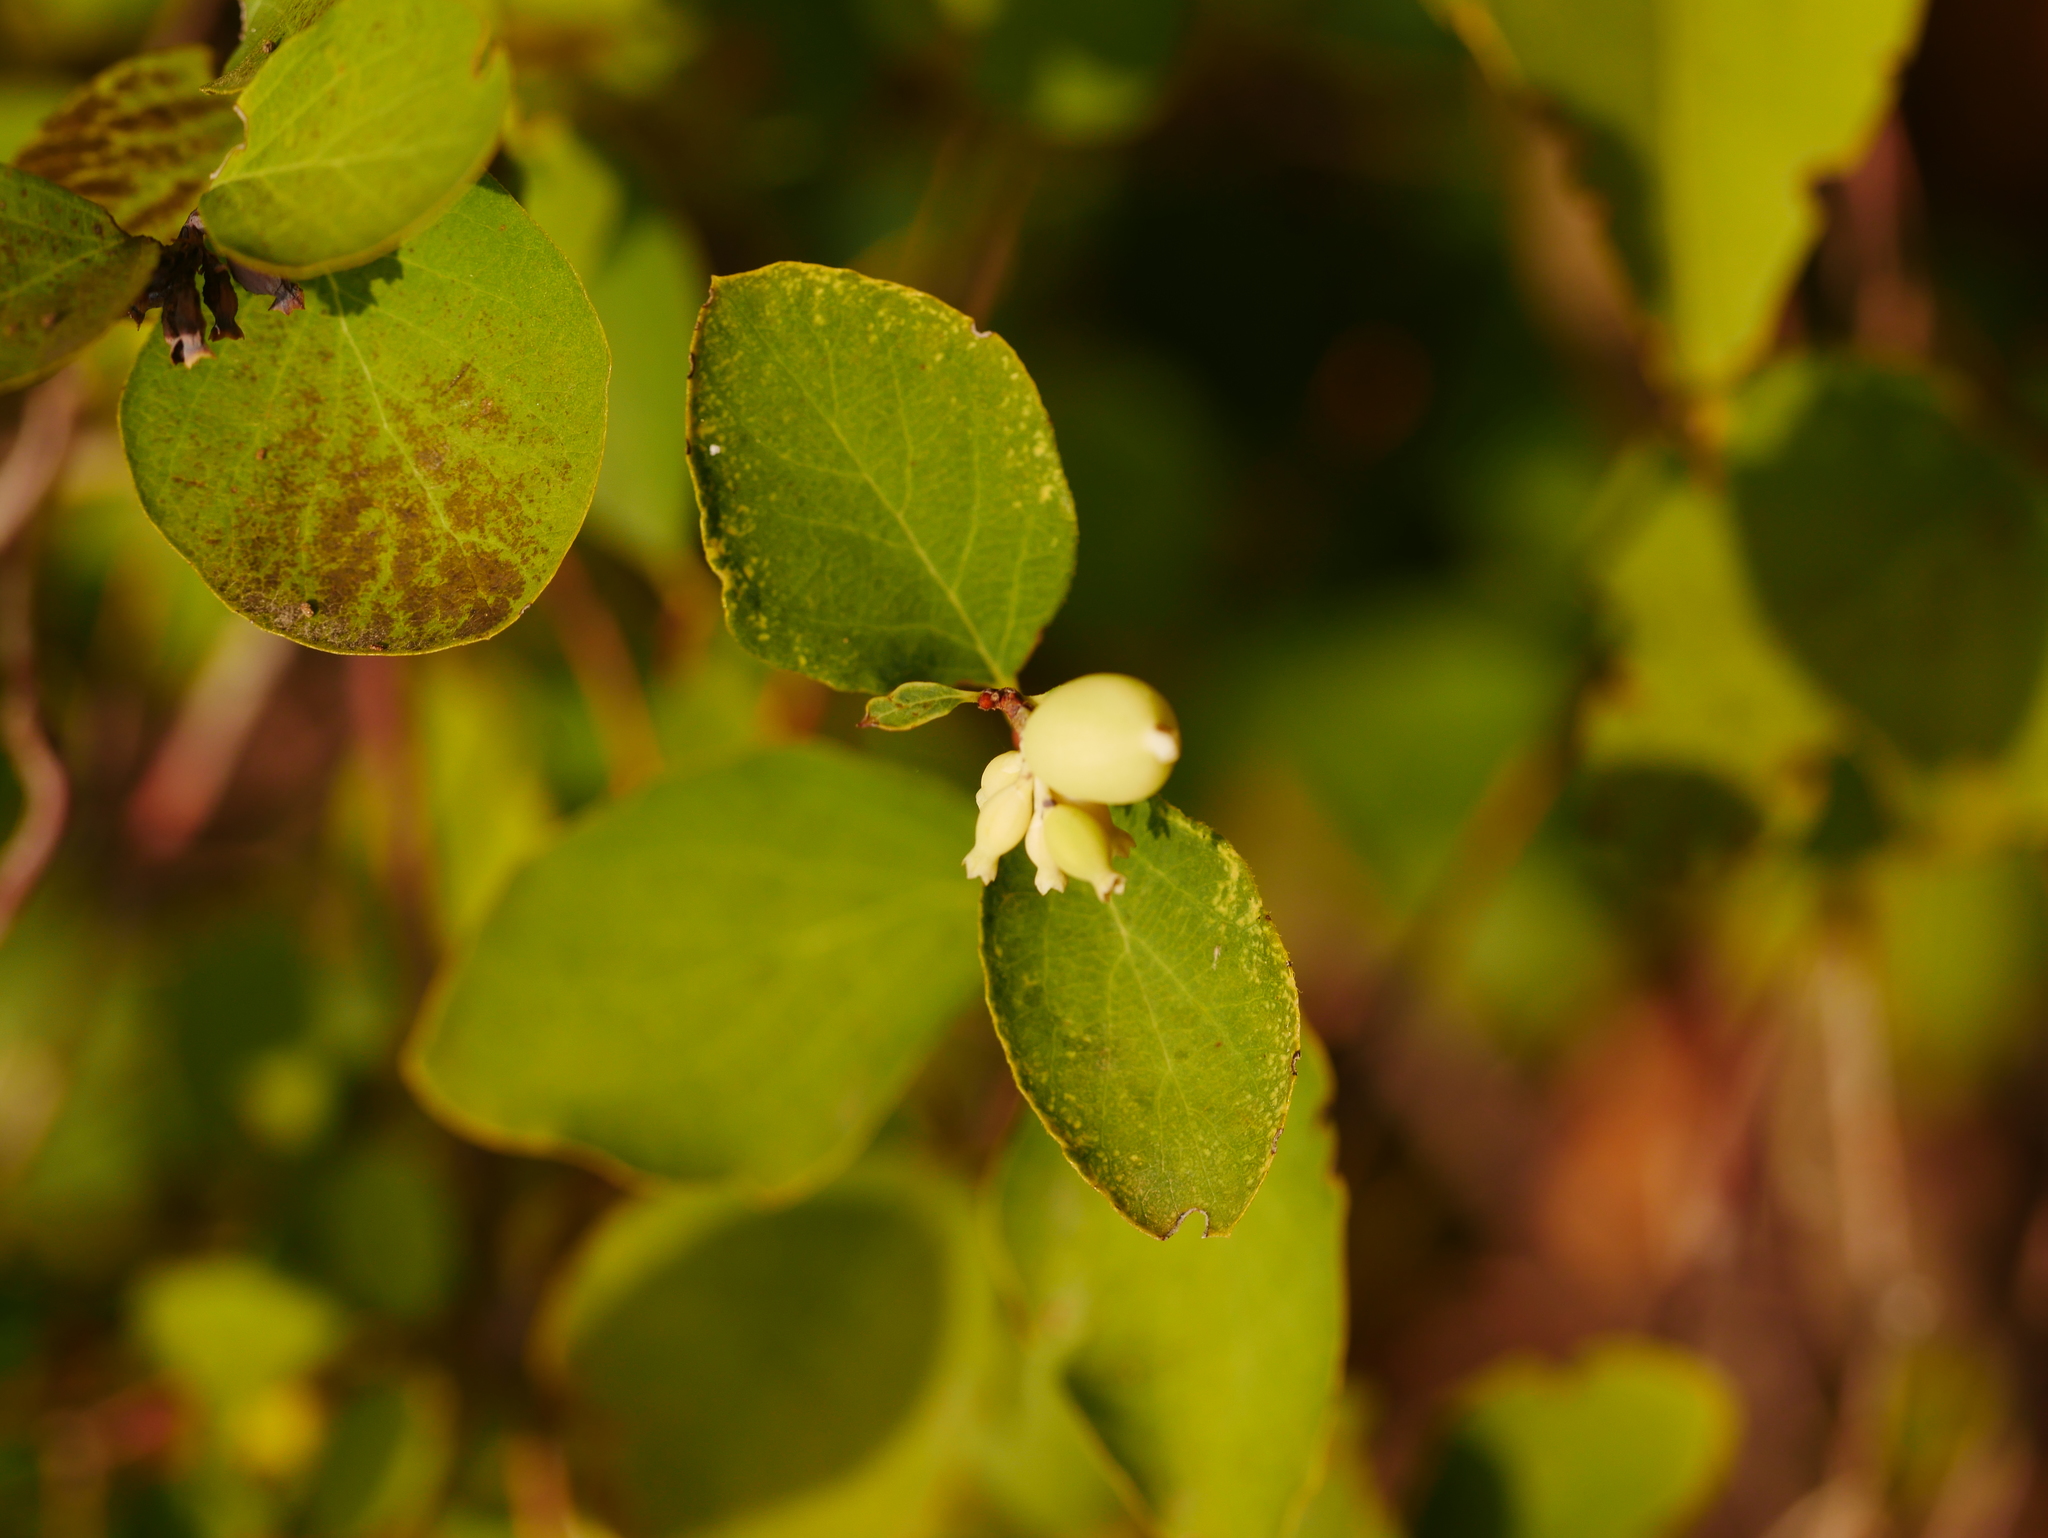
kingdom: Plantae
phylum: Tracheophyta
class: Magnoliopsida
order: Dipsacales
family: Caprifoliaceae
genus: Symphoricarpos
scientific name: Symphoricarpos albus
